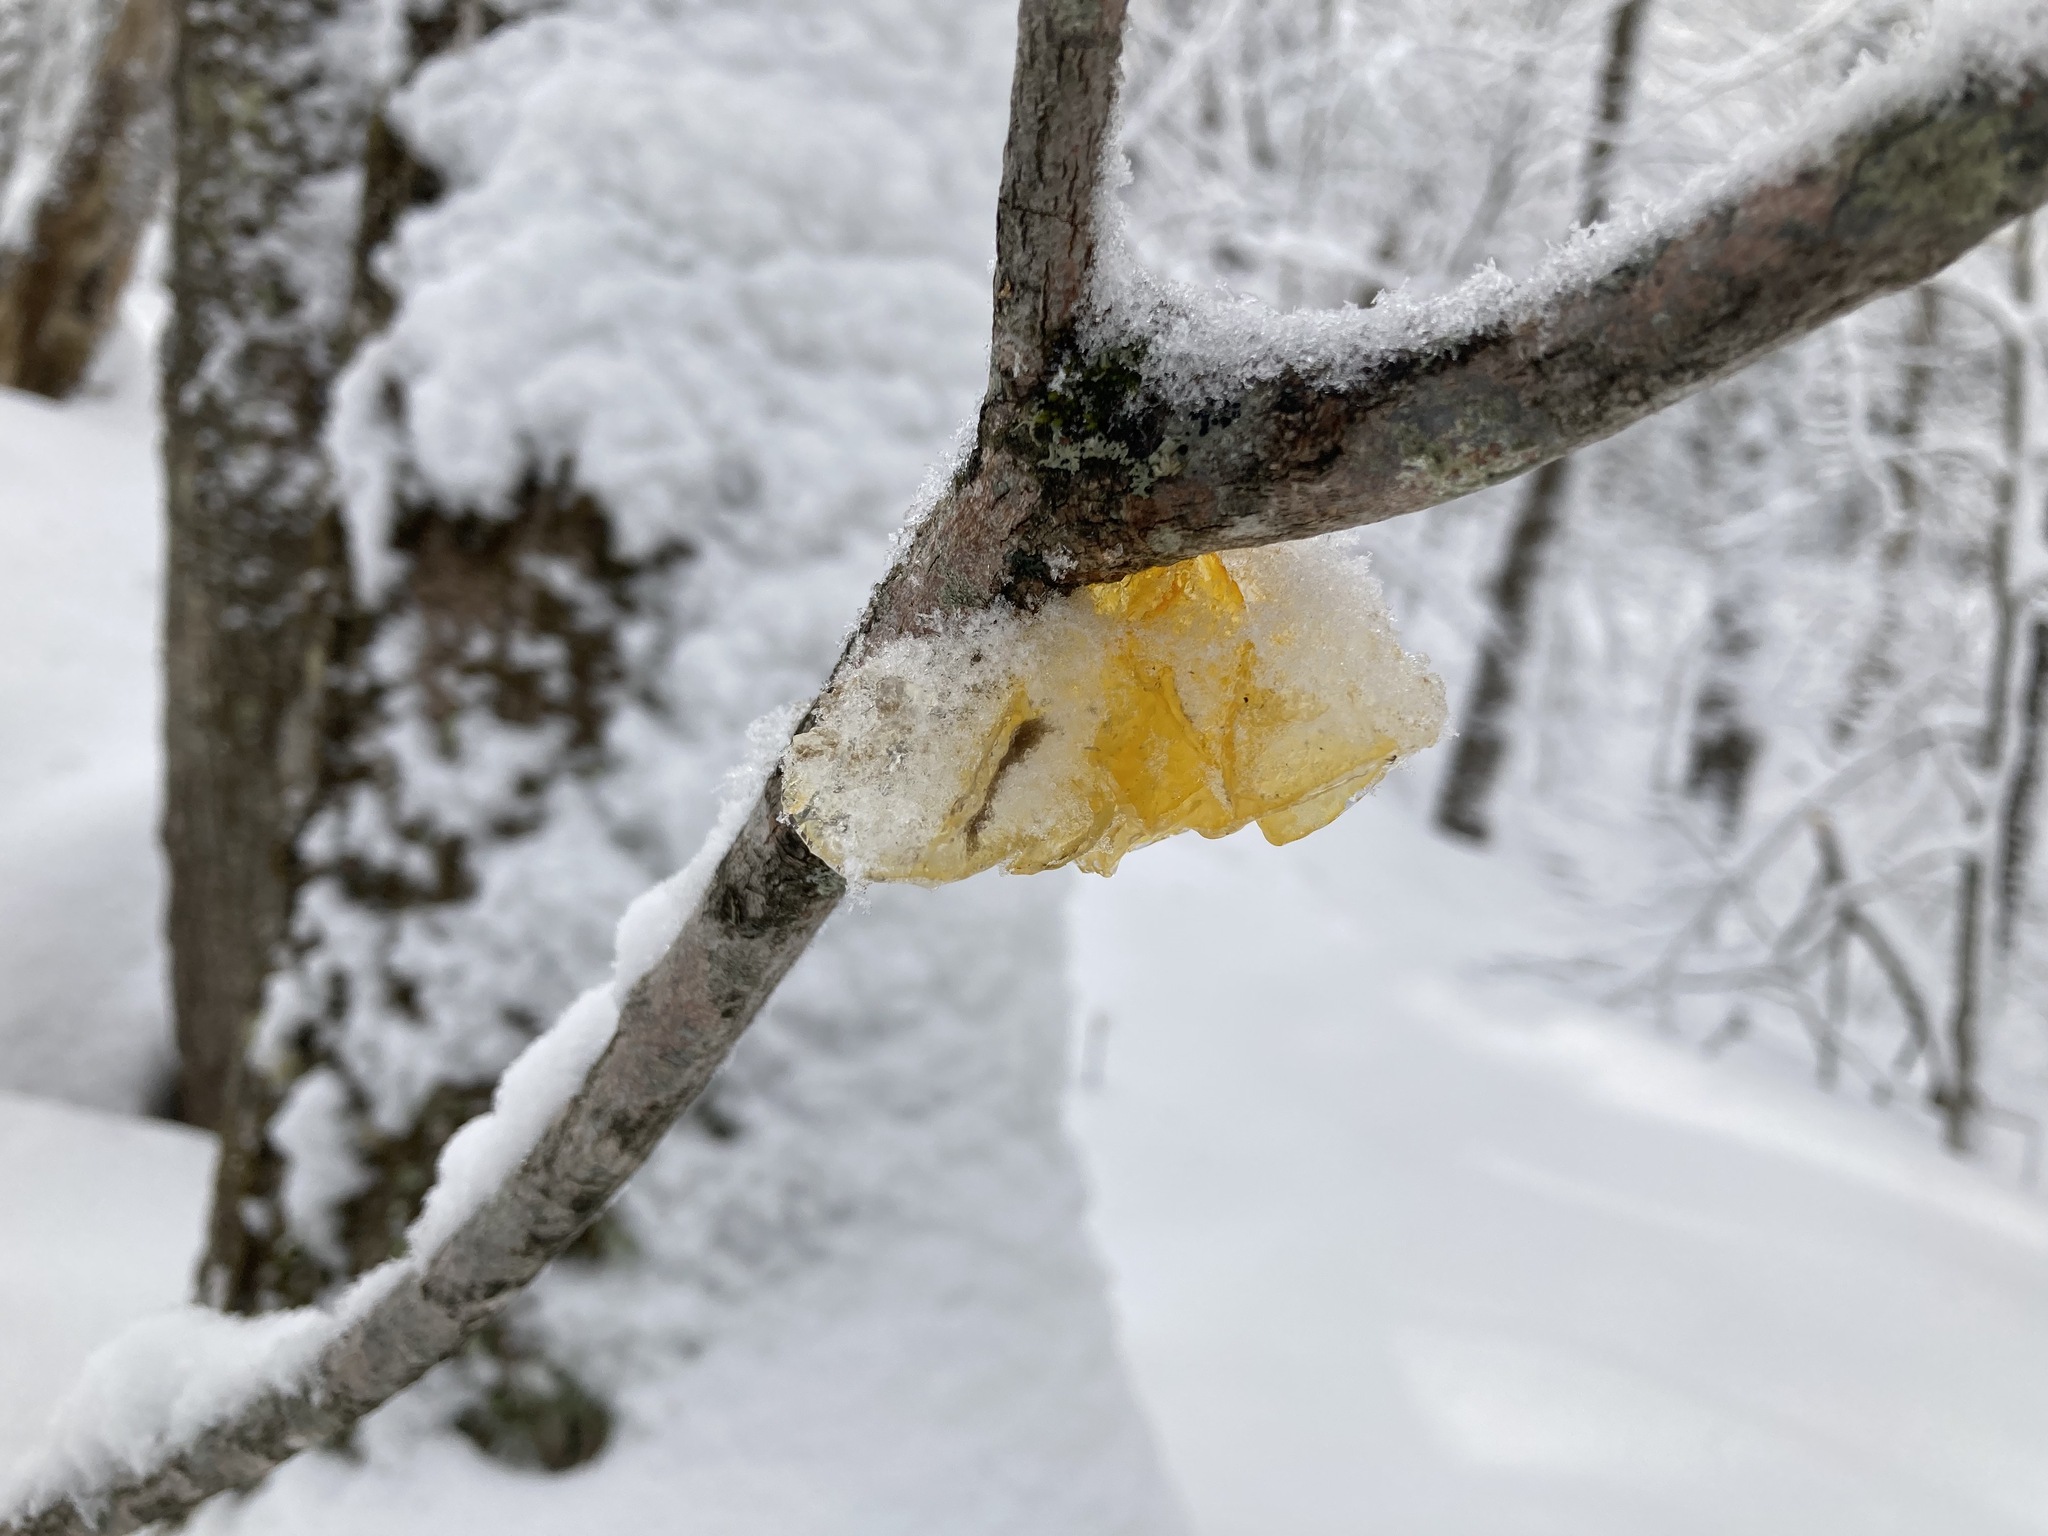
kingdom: Fungi
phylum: Basidiomycota
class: Tremellomycetes
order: Tremellales
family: Tremellaceae
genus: Tremella
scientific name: Tremella mesenterica
